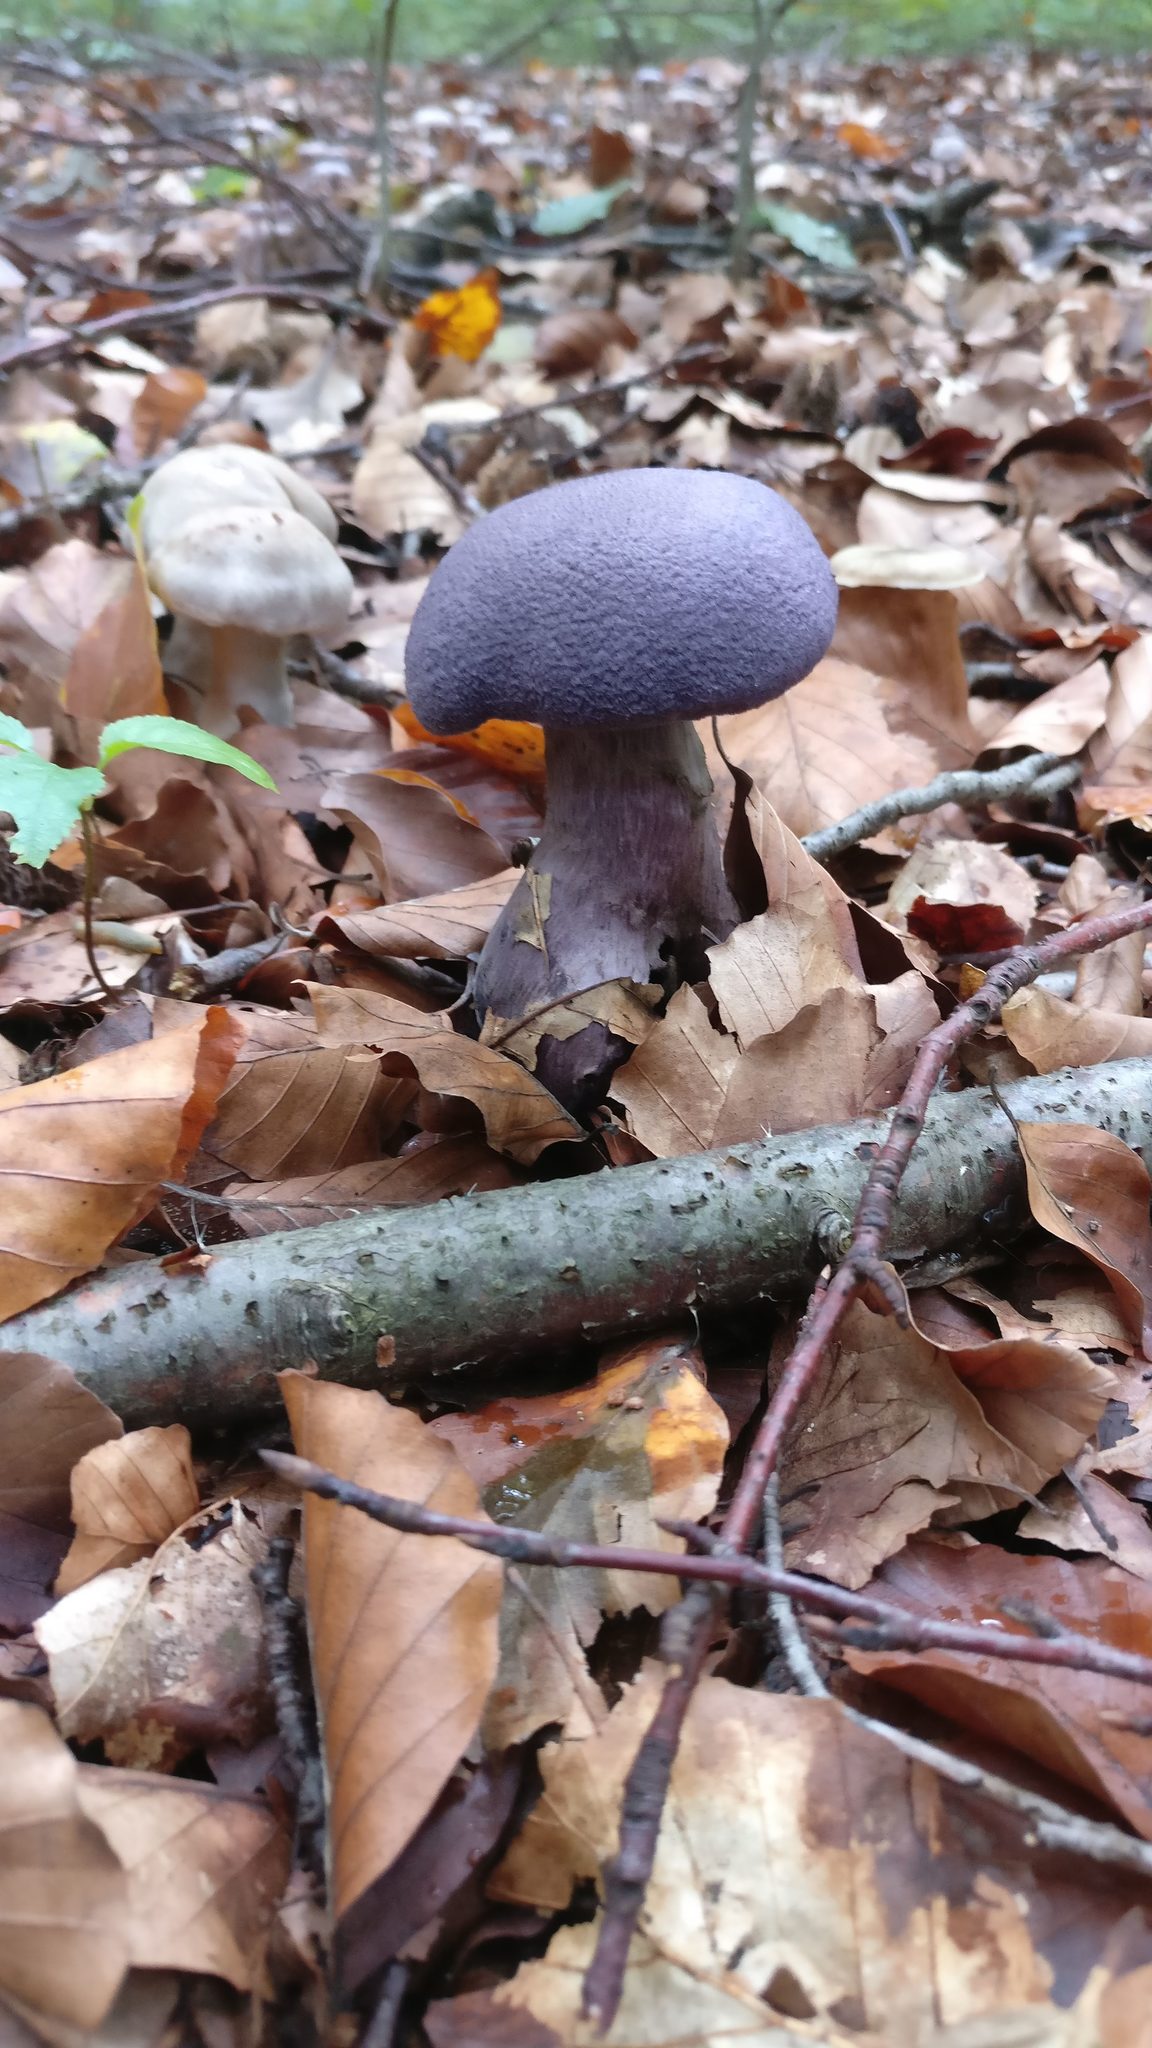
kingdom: Fungi
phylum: Basidiomycota
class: Agaricomycetes
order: Agaricales
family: Cortinariaceae
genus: Cortinarius
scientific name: Cortinarius violaceus
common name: Violet webcap
